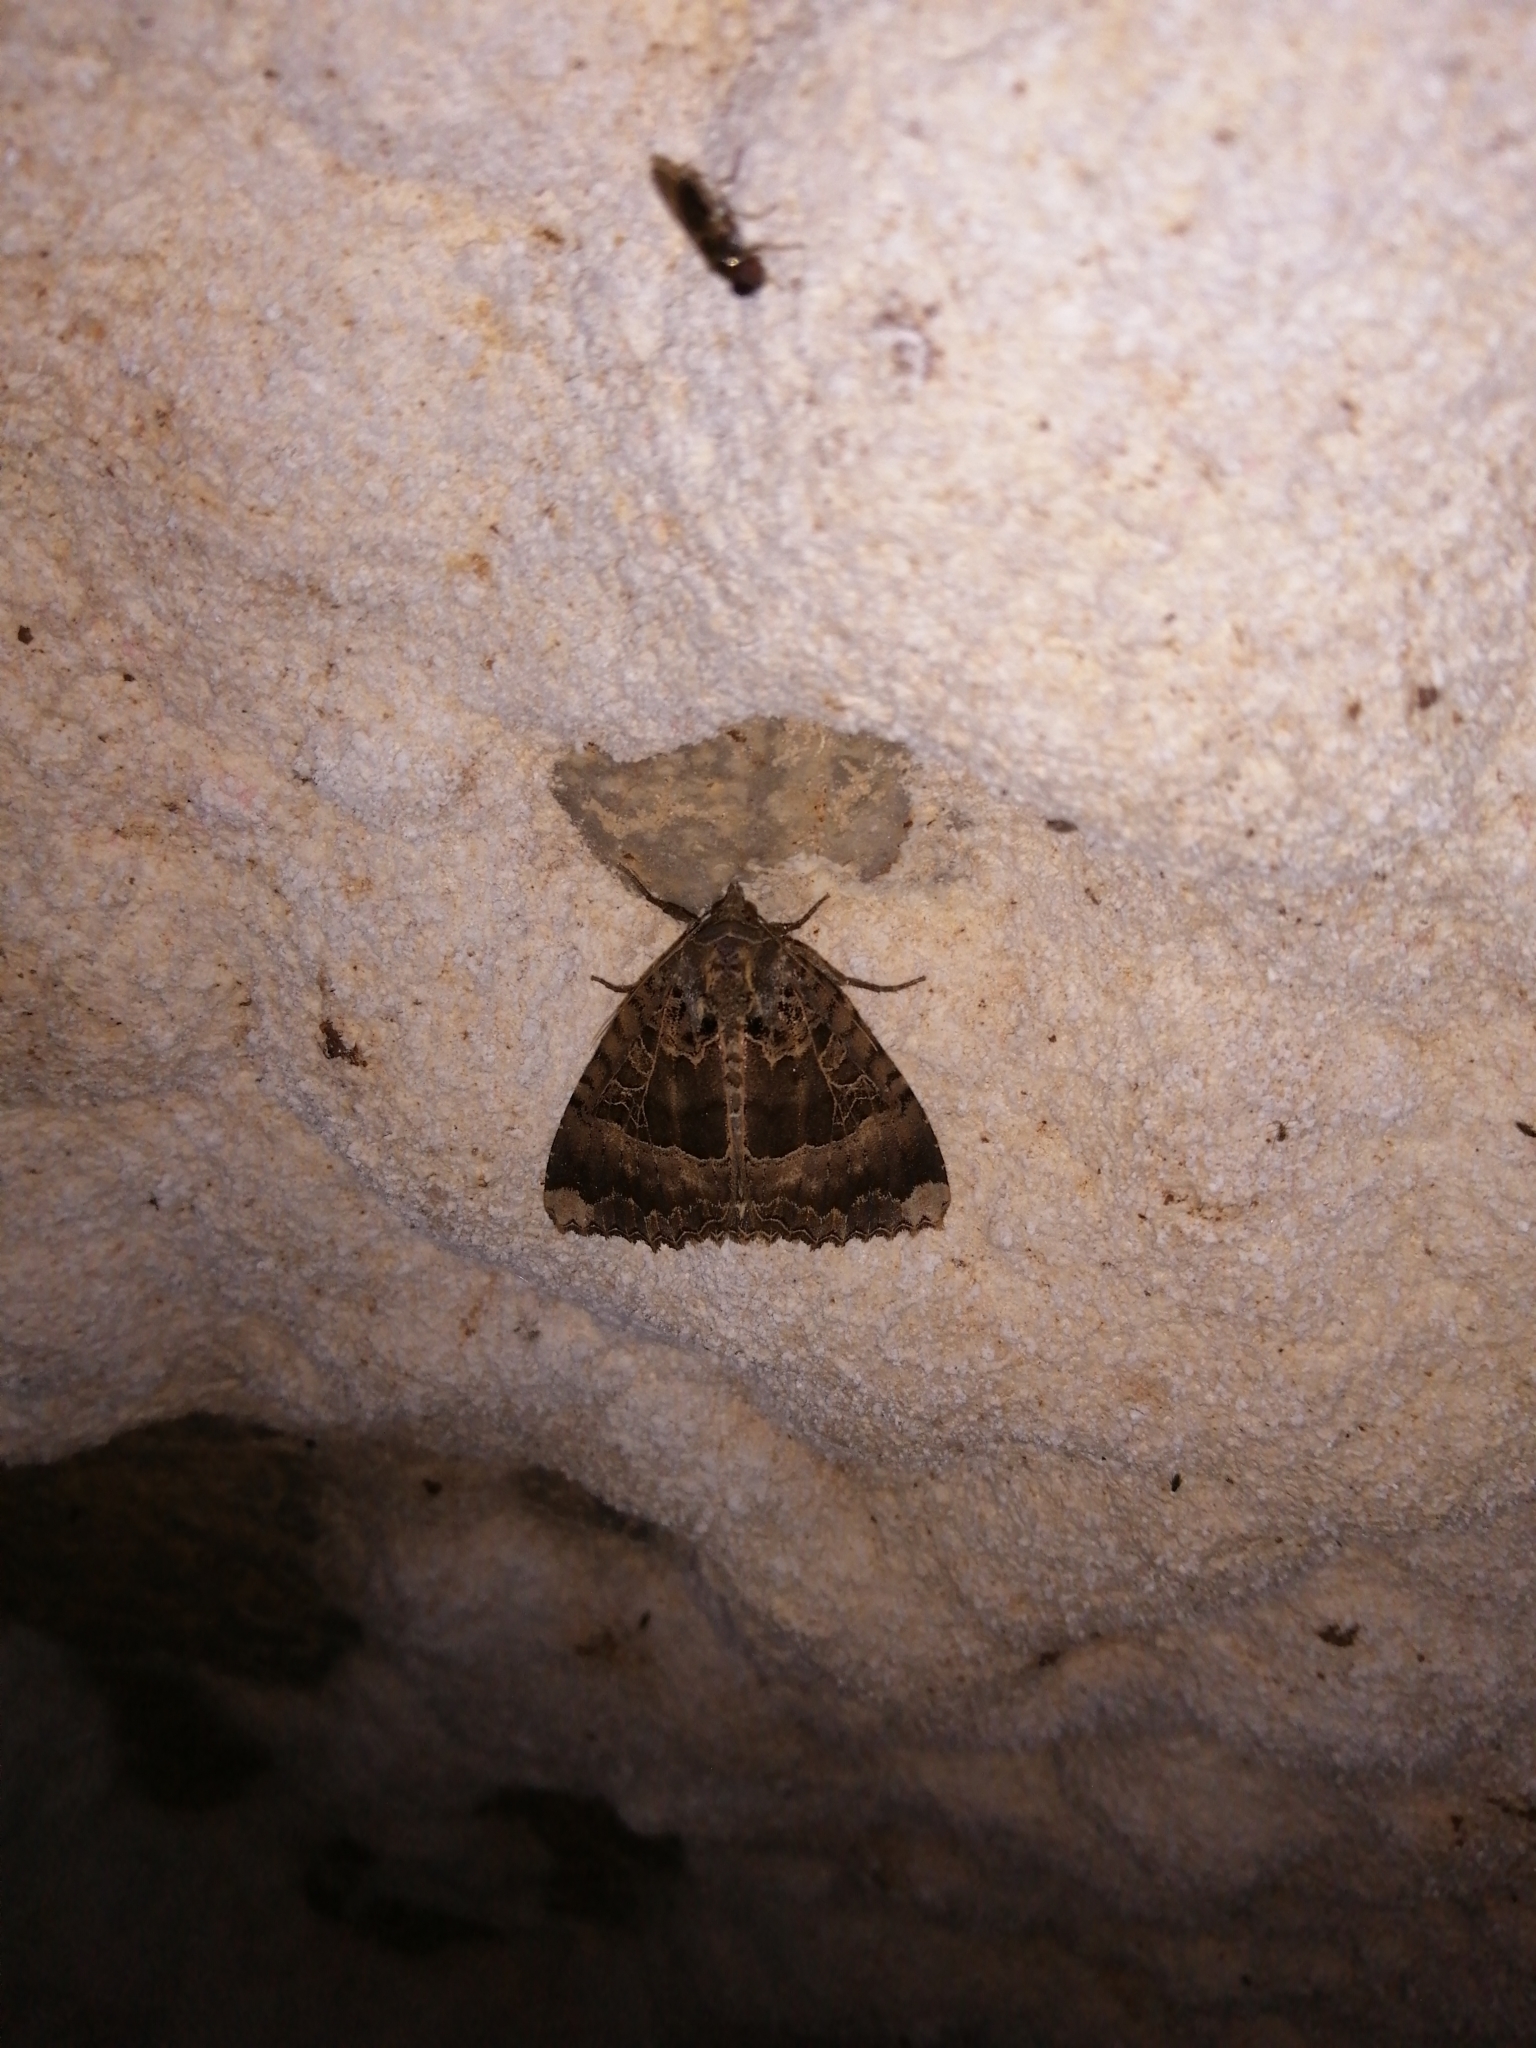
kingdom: Animalia
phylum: Arthropoda
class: Insecta
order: Lepidoptera
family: Noctuidae
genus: Mormo
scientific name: Mormo maura
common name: Old lady
